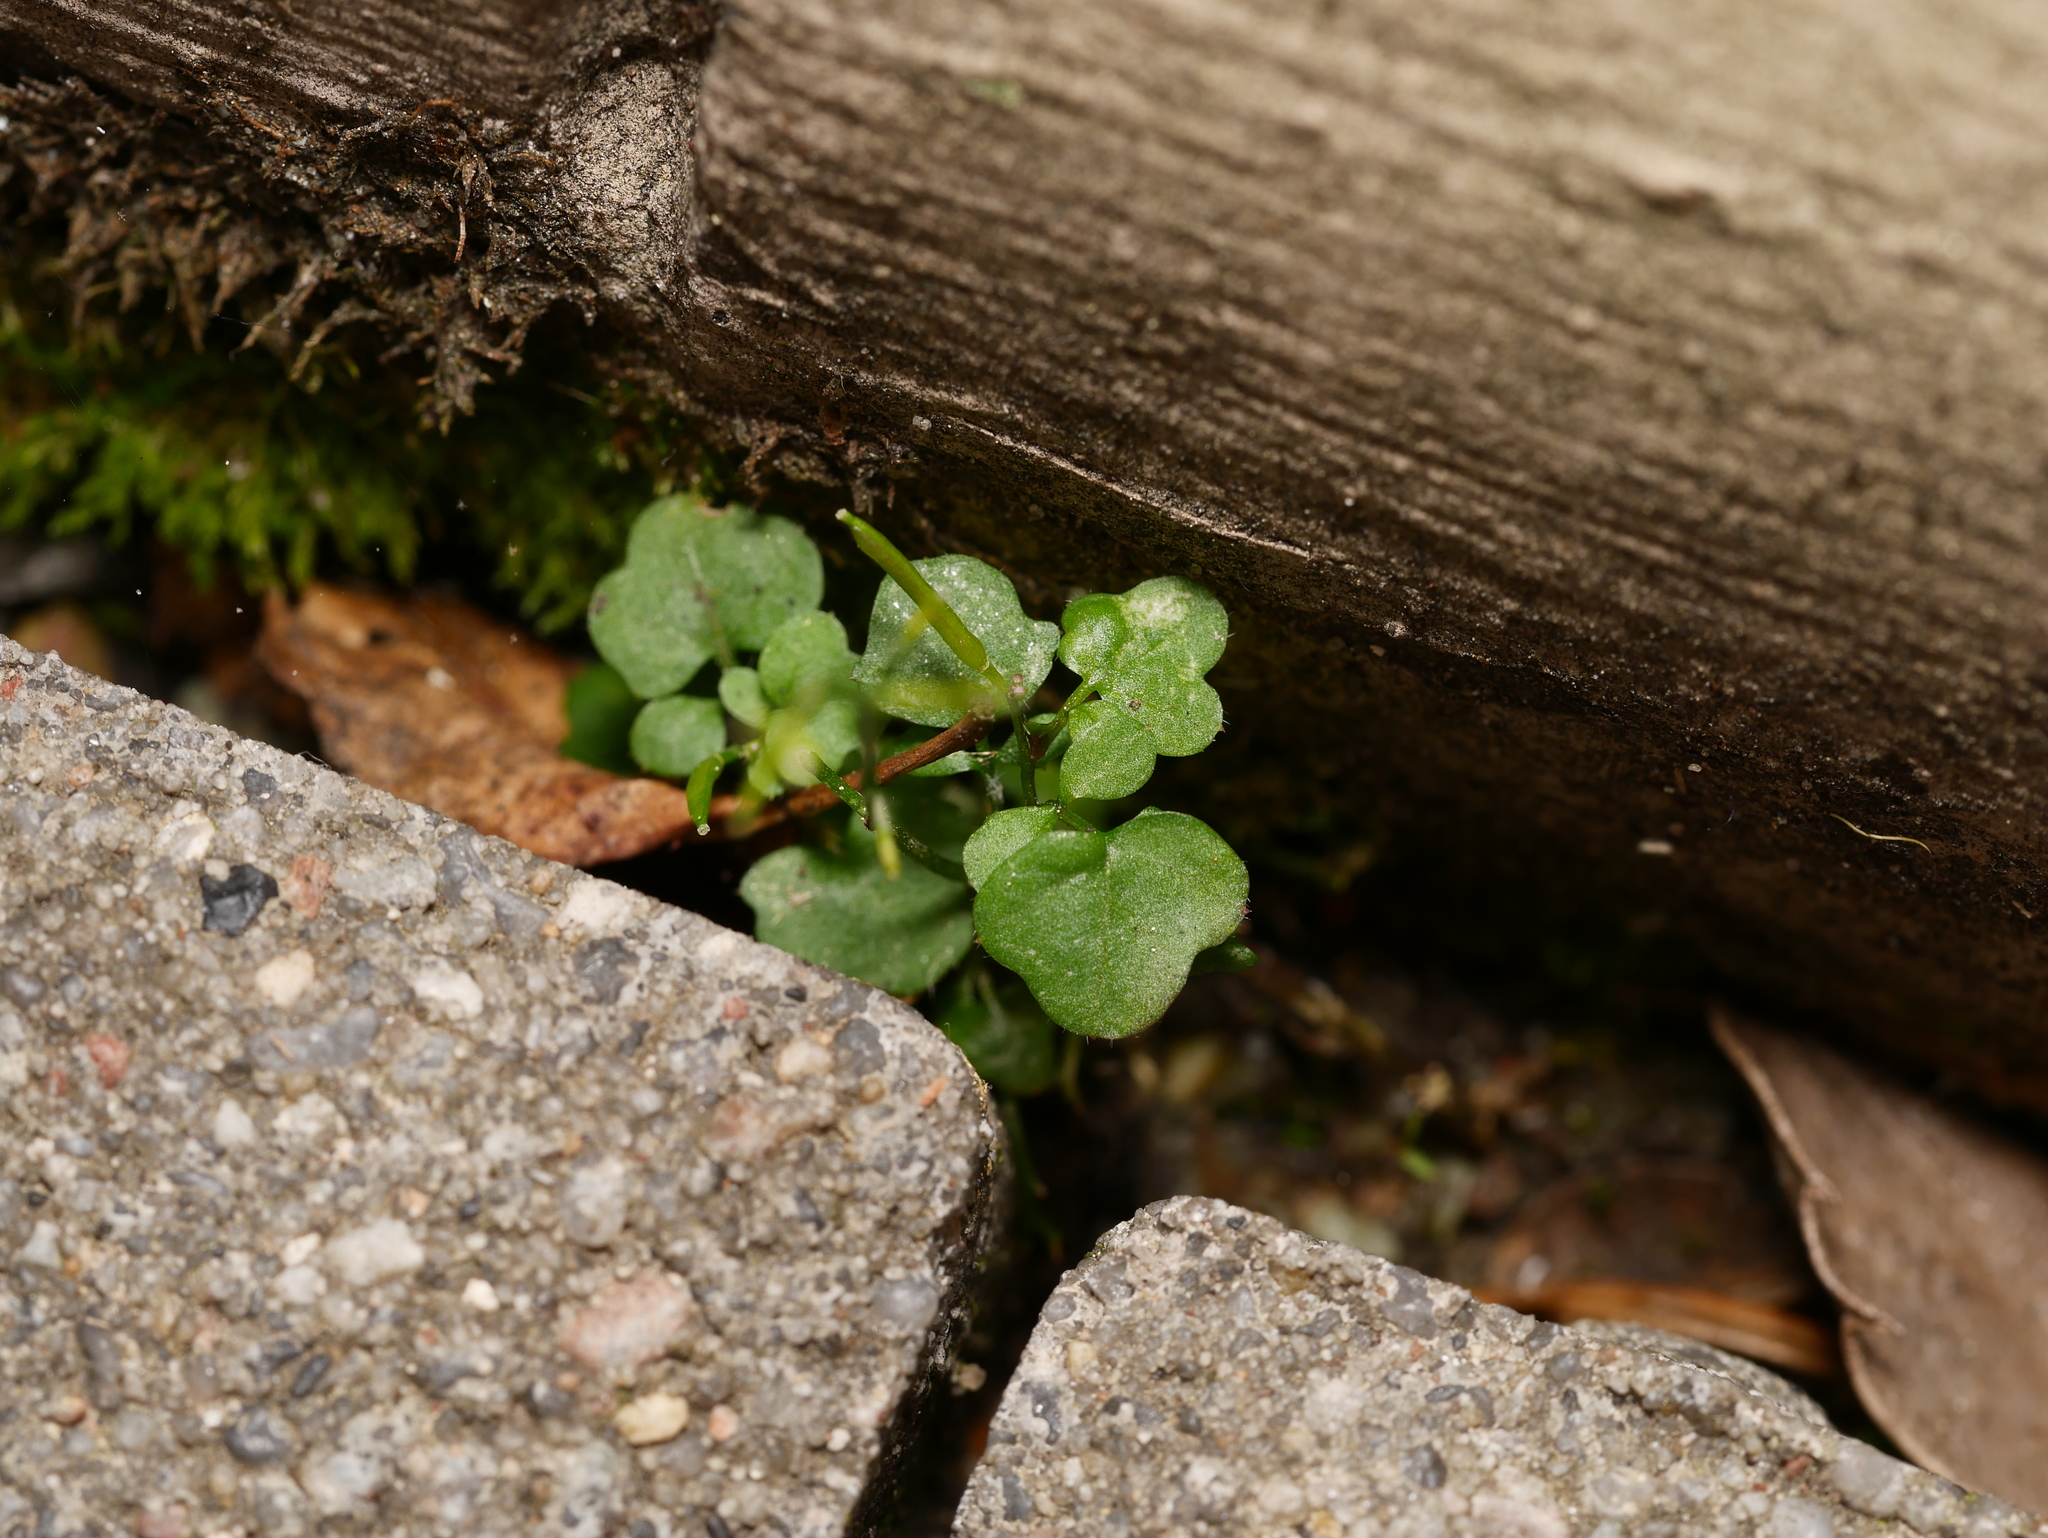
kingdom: Plantae
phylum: Tracheophyta
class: Magnoliopsida
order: Brassicales
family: Brassicaceae
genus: Cardamine
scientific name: Cardamine hirsuta
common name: Hairy bittercress
